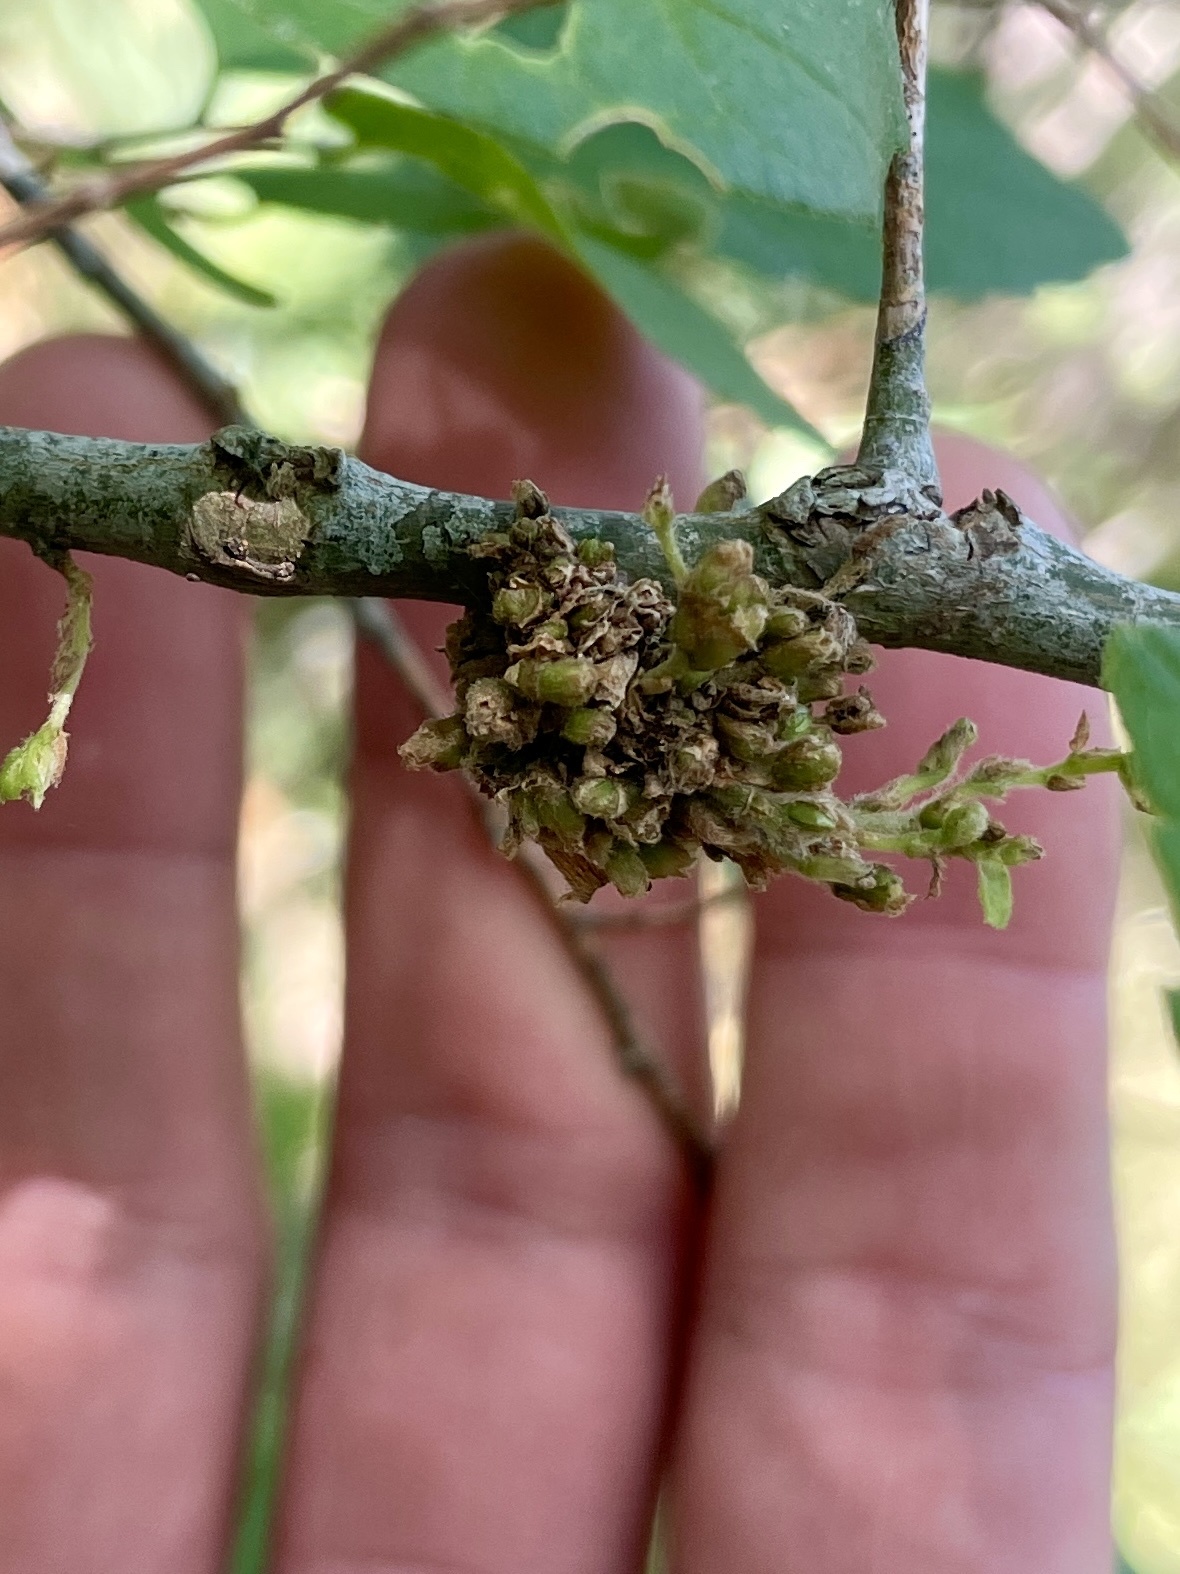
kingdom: Animalia
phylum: Arthropoda
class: Arachnida
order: Trombidiformes
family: Eriophyidae
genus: Aceria
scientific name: Aceria
